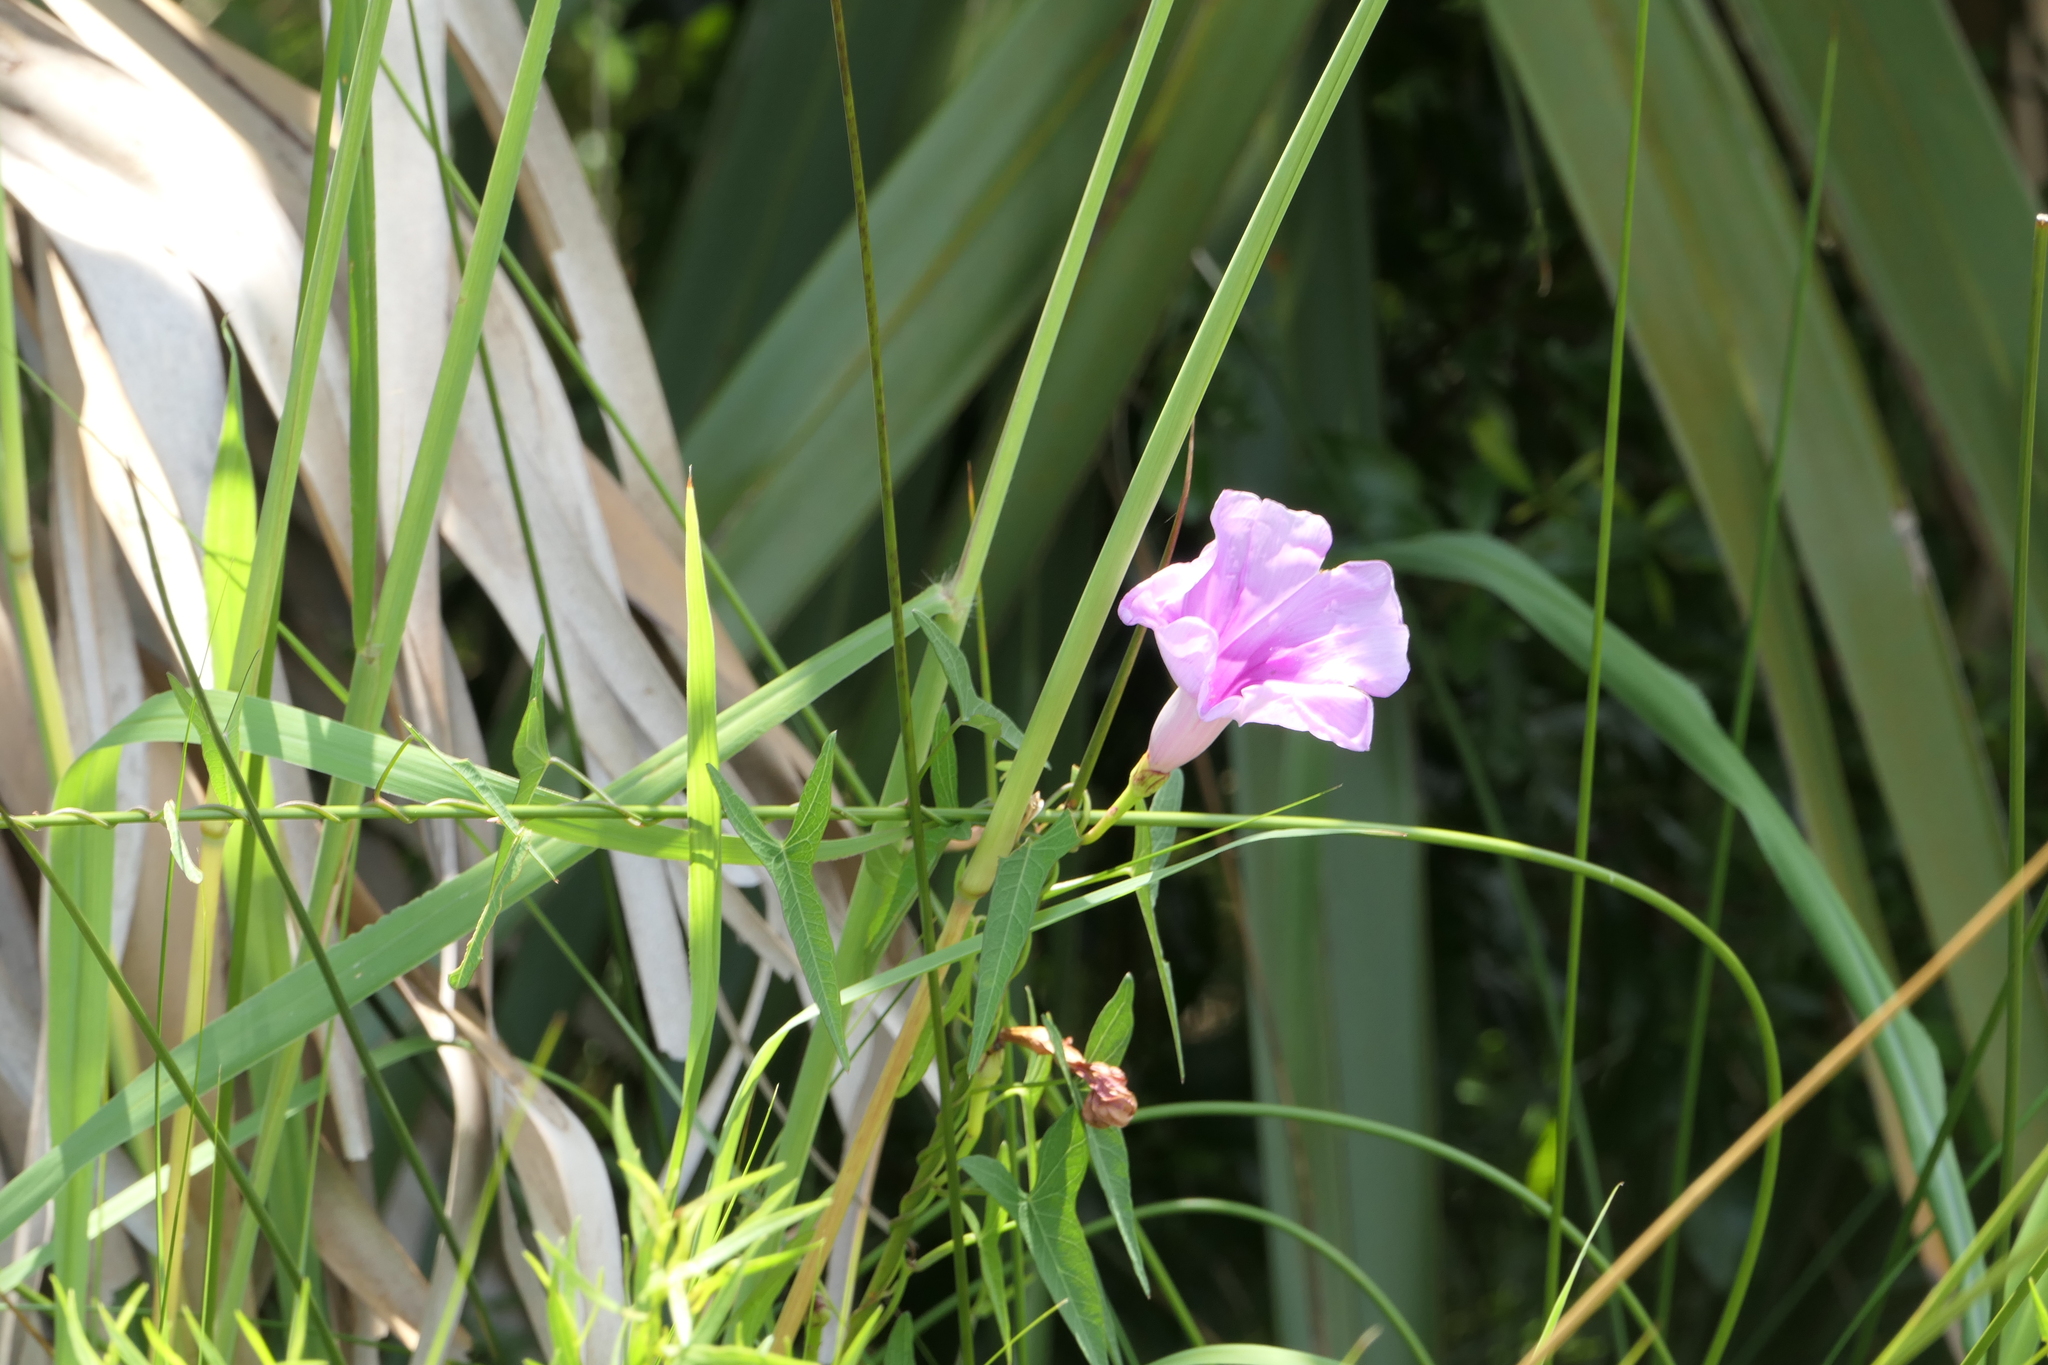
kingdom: Plantae
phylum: Tracheophyta
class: Magnoliopsida
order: Solanales
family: Convolvulaceae
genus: Ipomoea
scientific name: Ipomoea sagittata
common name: Saltmarsh morning glory
